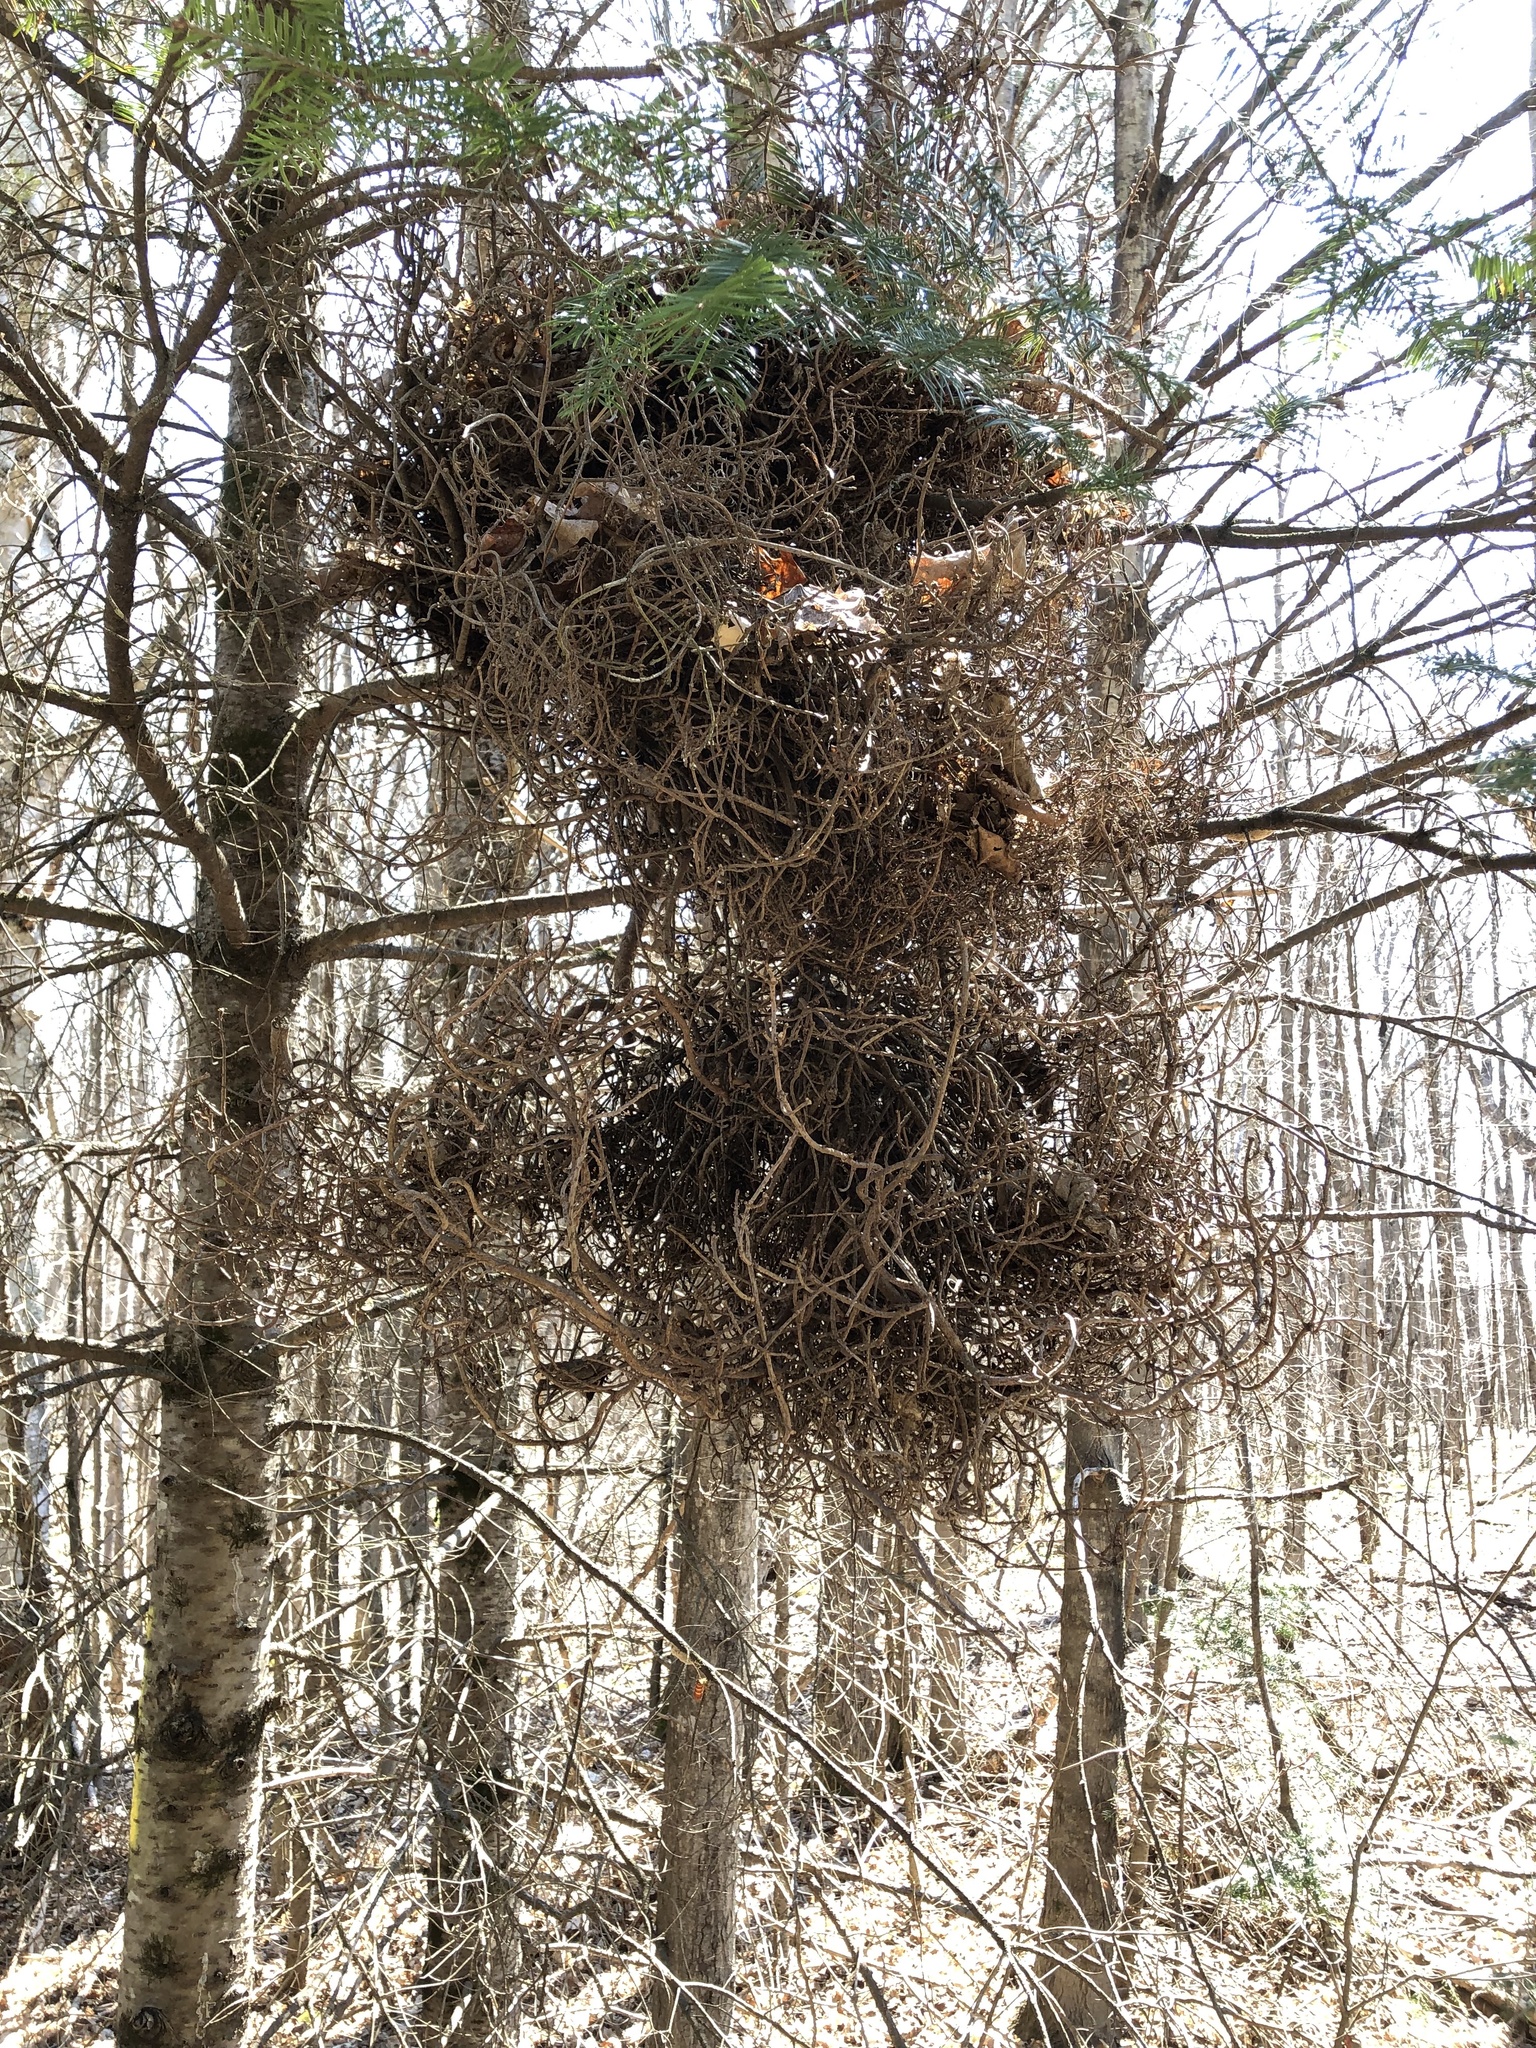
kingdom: Fungi
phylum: Basidiomycota
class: Pucciniomycetes
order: Pucciniales
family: Pucciniastraceae
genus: Melampsorella
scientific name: Melampsorella elatina
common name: Fir broom rust
